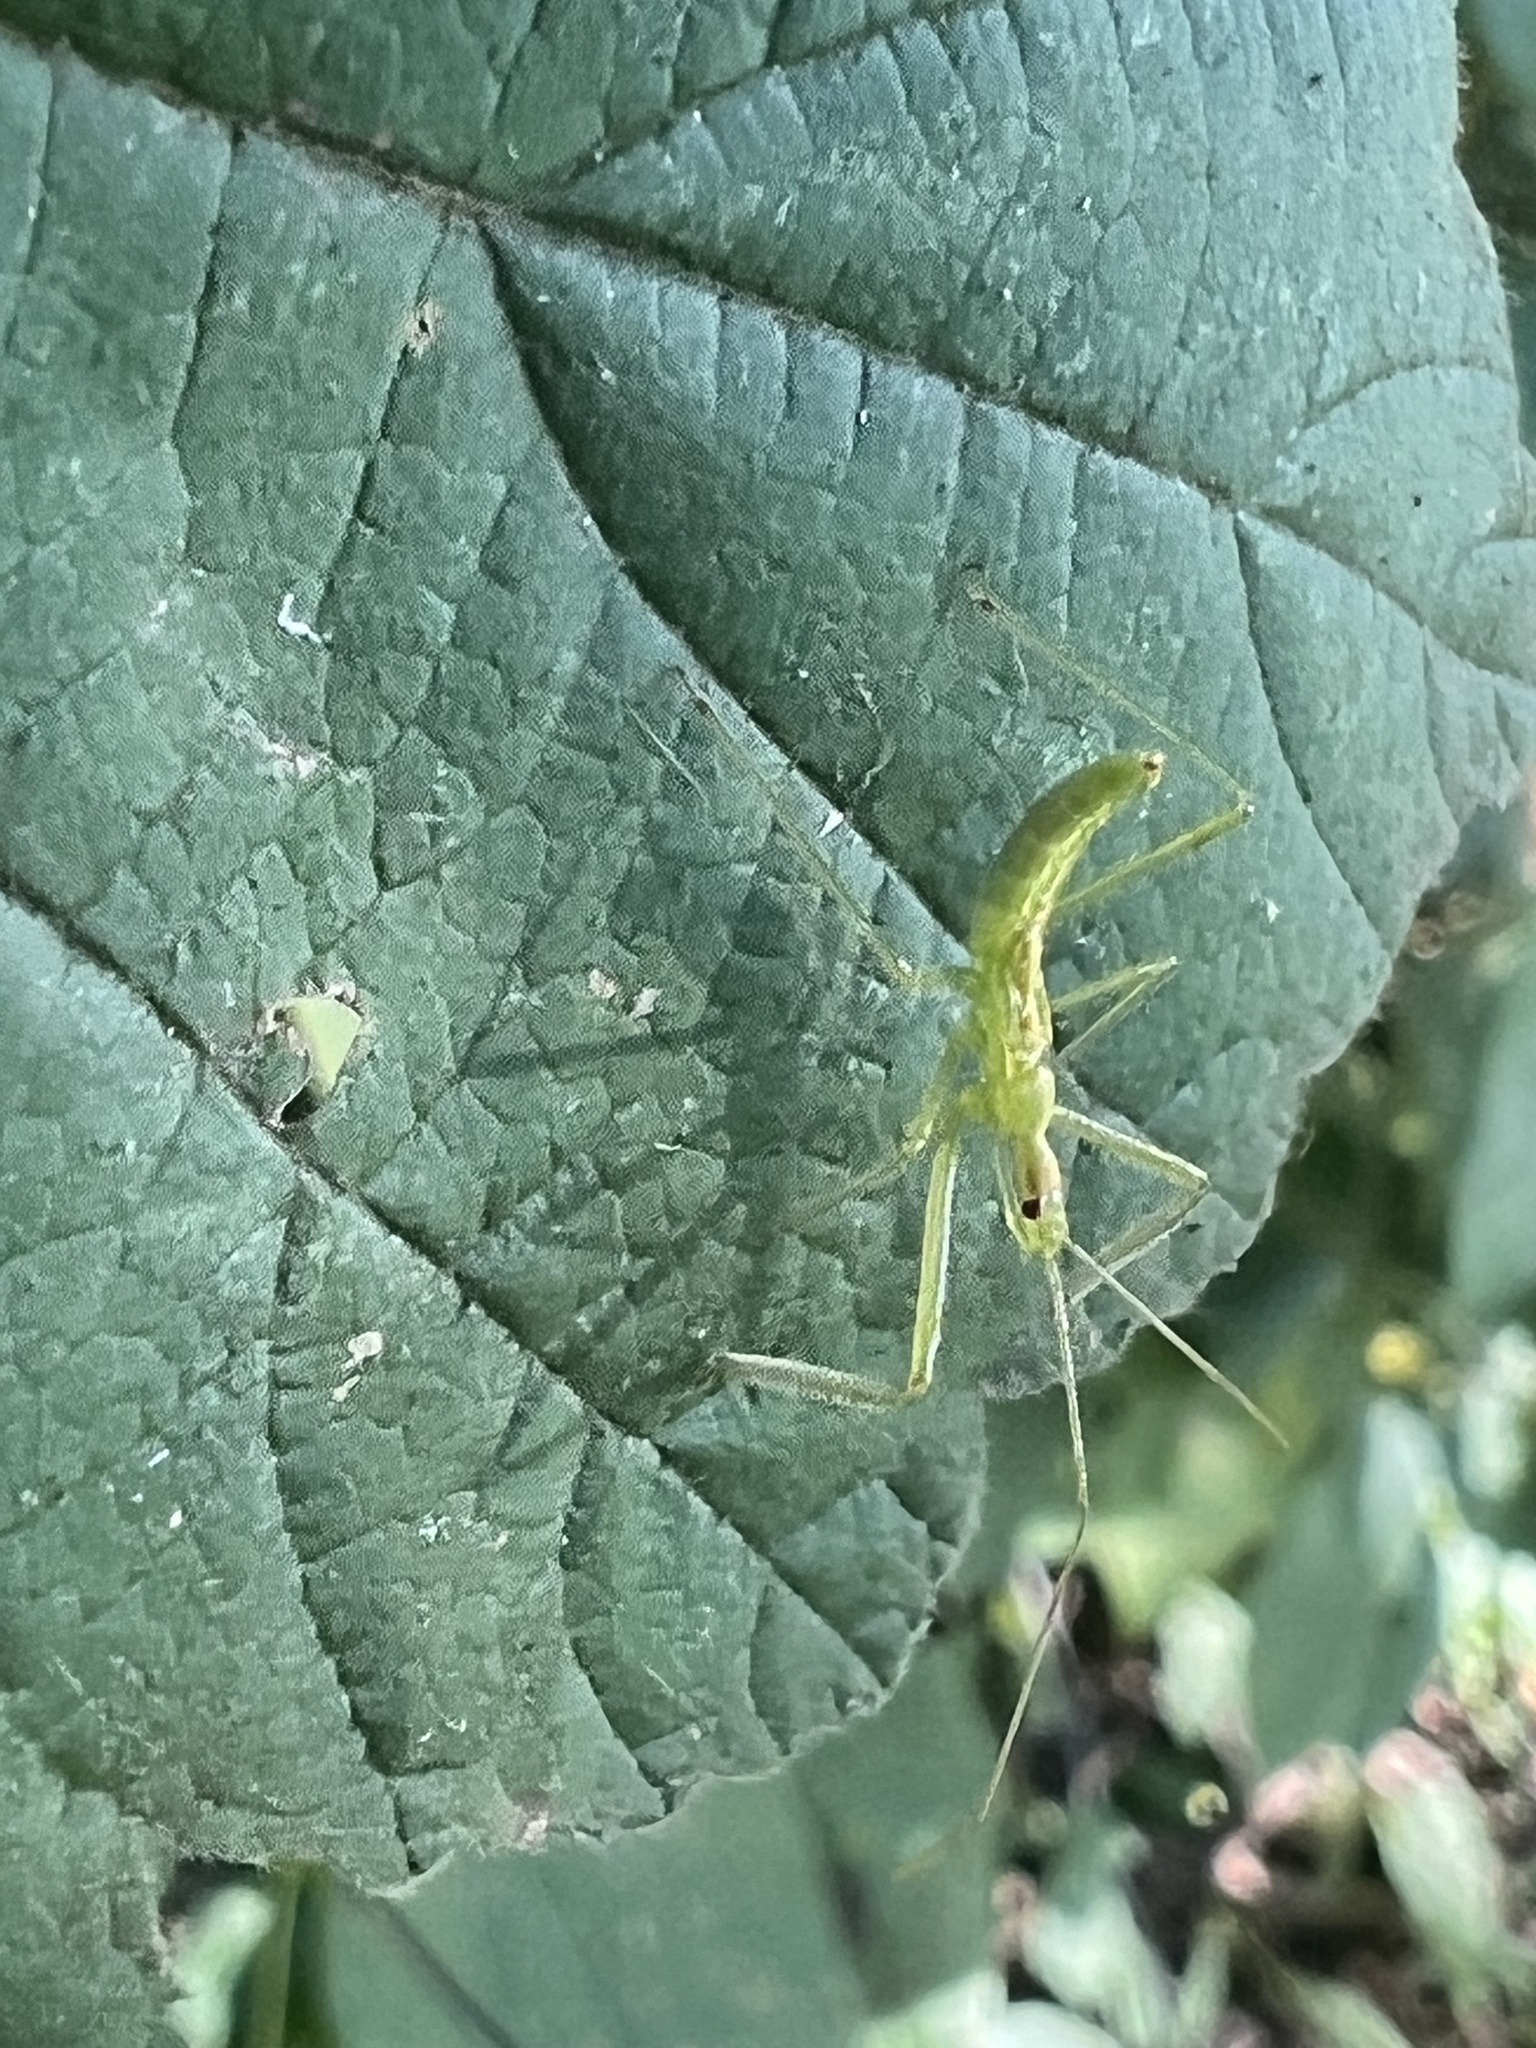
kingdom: Animalia
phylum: Arthropoda
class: Insecta
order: Hemiptera
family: Reduviidae
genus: Zelus
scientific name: Zelus luridus
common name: Pale green assassin bug
